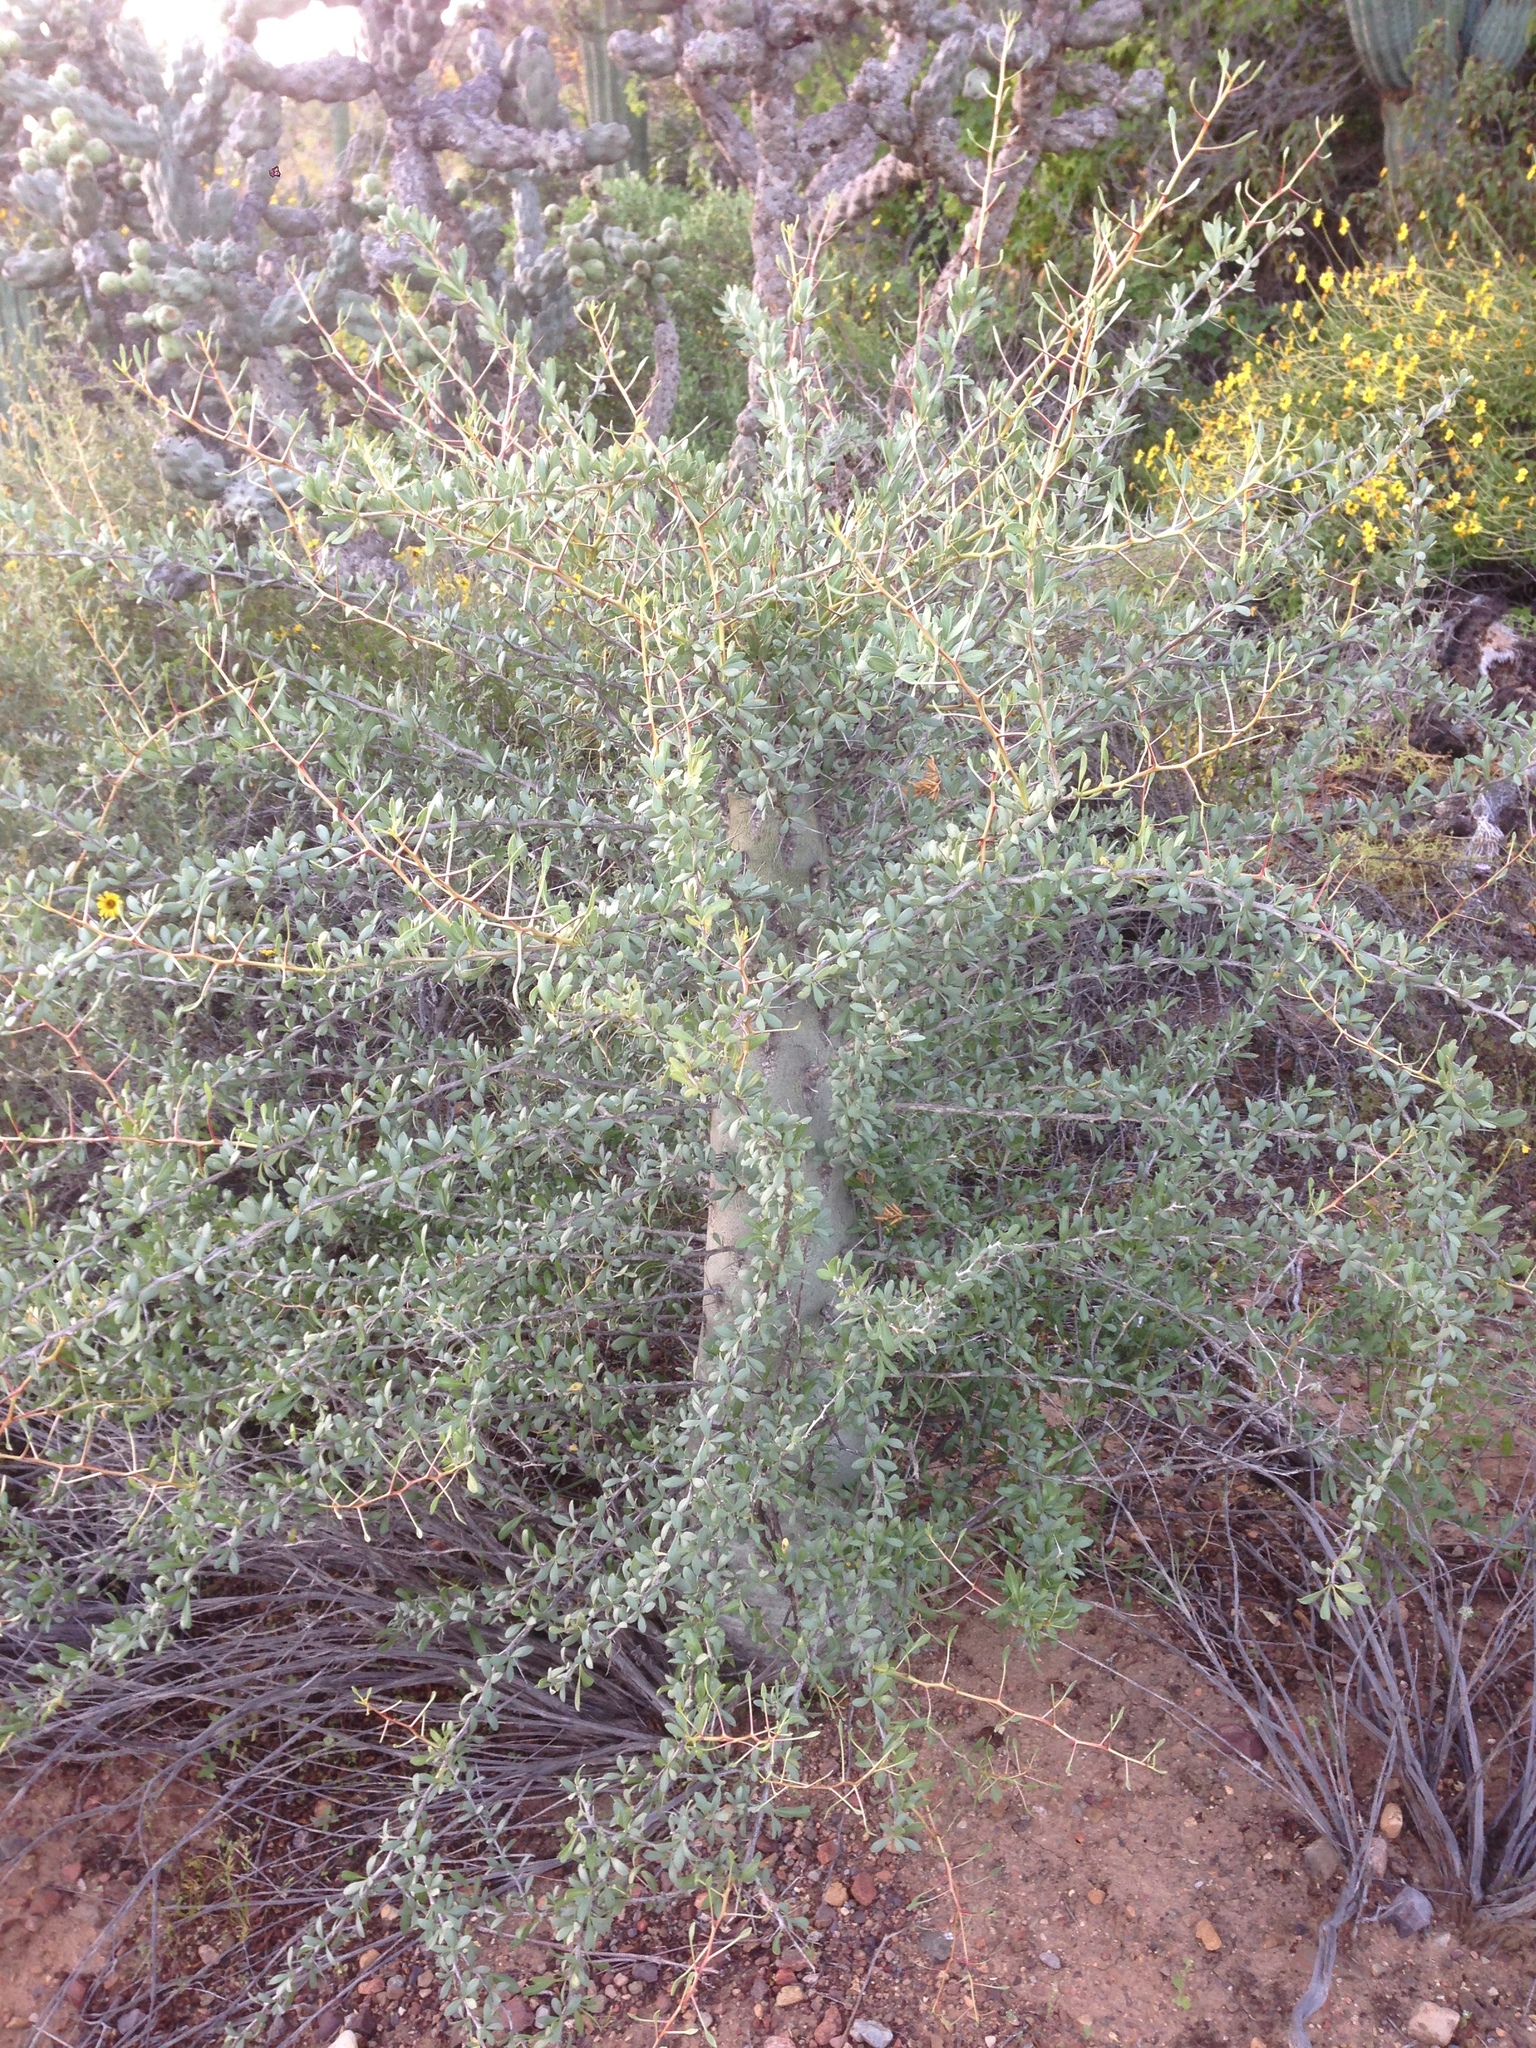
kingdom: Plantae
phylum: Tracheophyta
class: Magnoliopsida
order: Ericales
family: Fouquieriaceae
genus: Fouquieria
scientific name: Fouquieria columnaris
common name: Boojumtree
